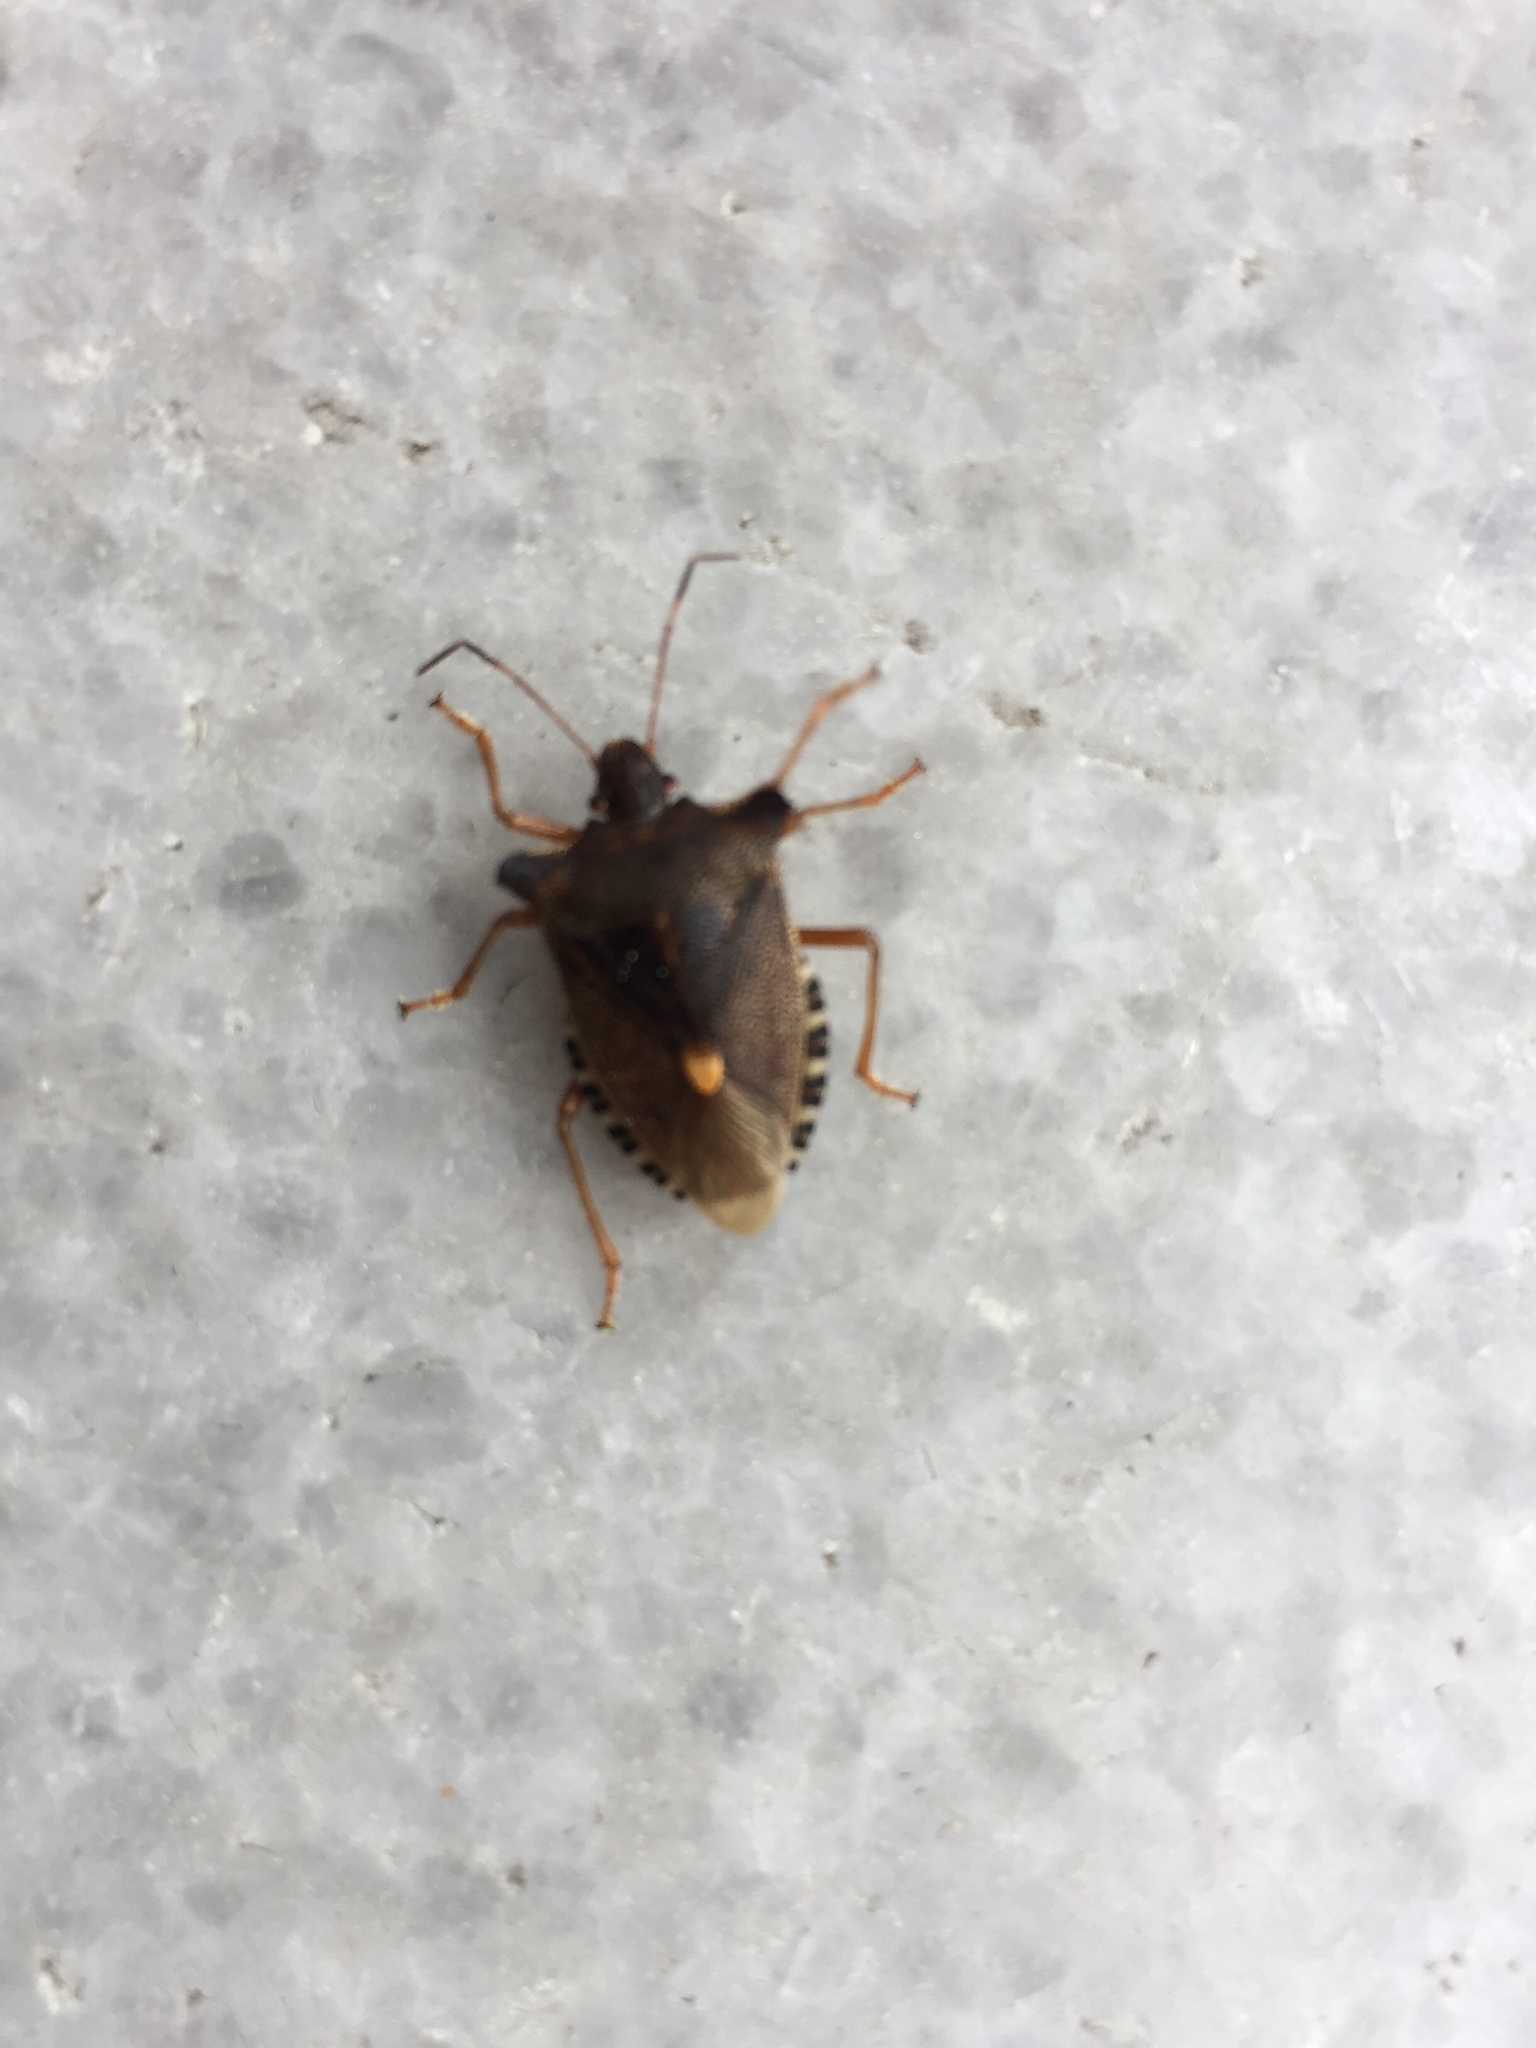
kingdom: Animalia
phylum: Arthropoda
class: Insecta
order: Hemiptera
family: Pentatomidae
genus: Pentatoma
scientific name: Pentatoma rufipes
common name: Forest bug
